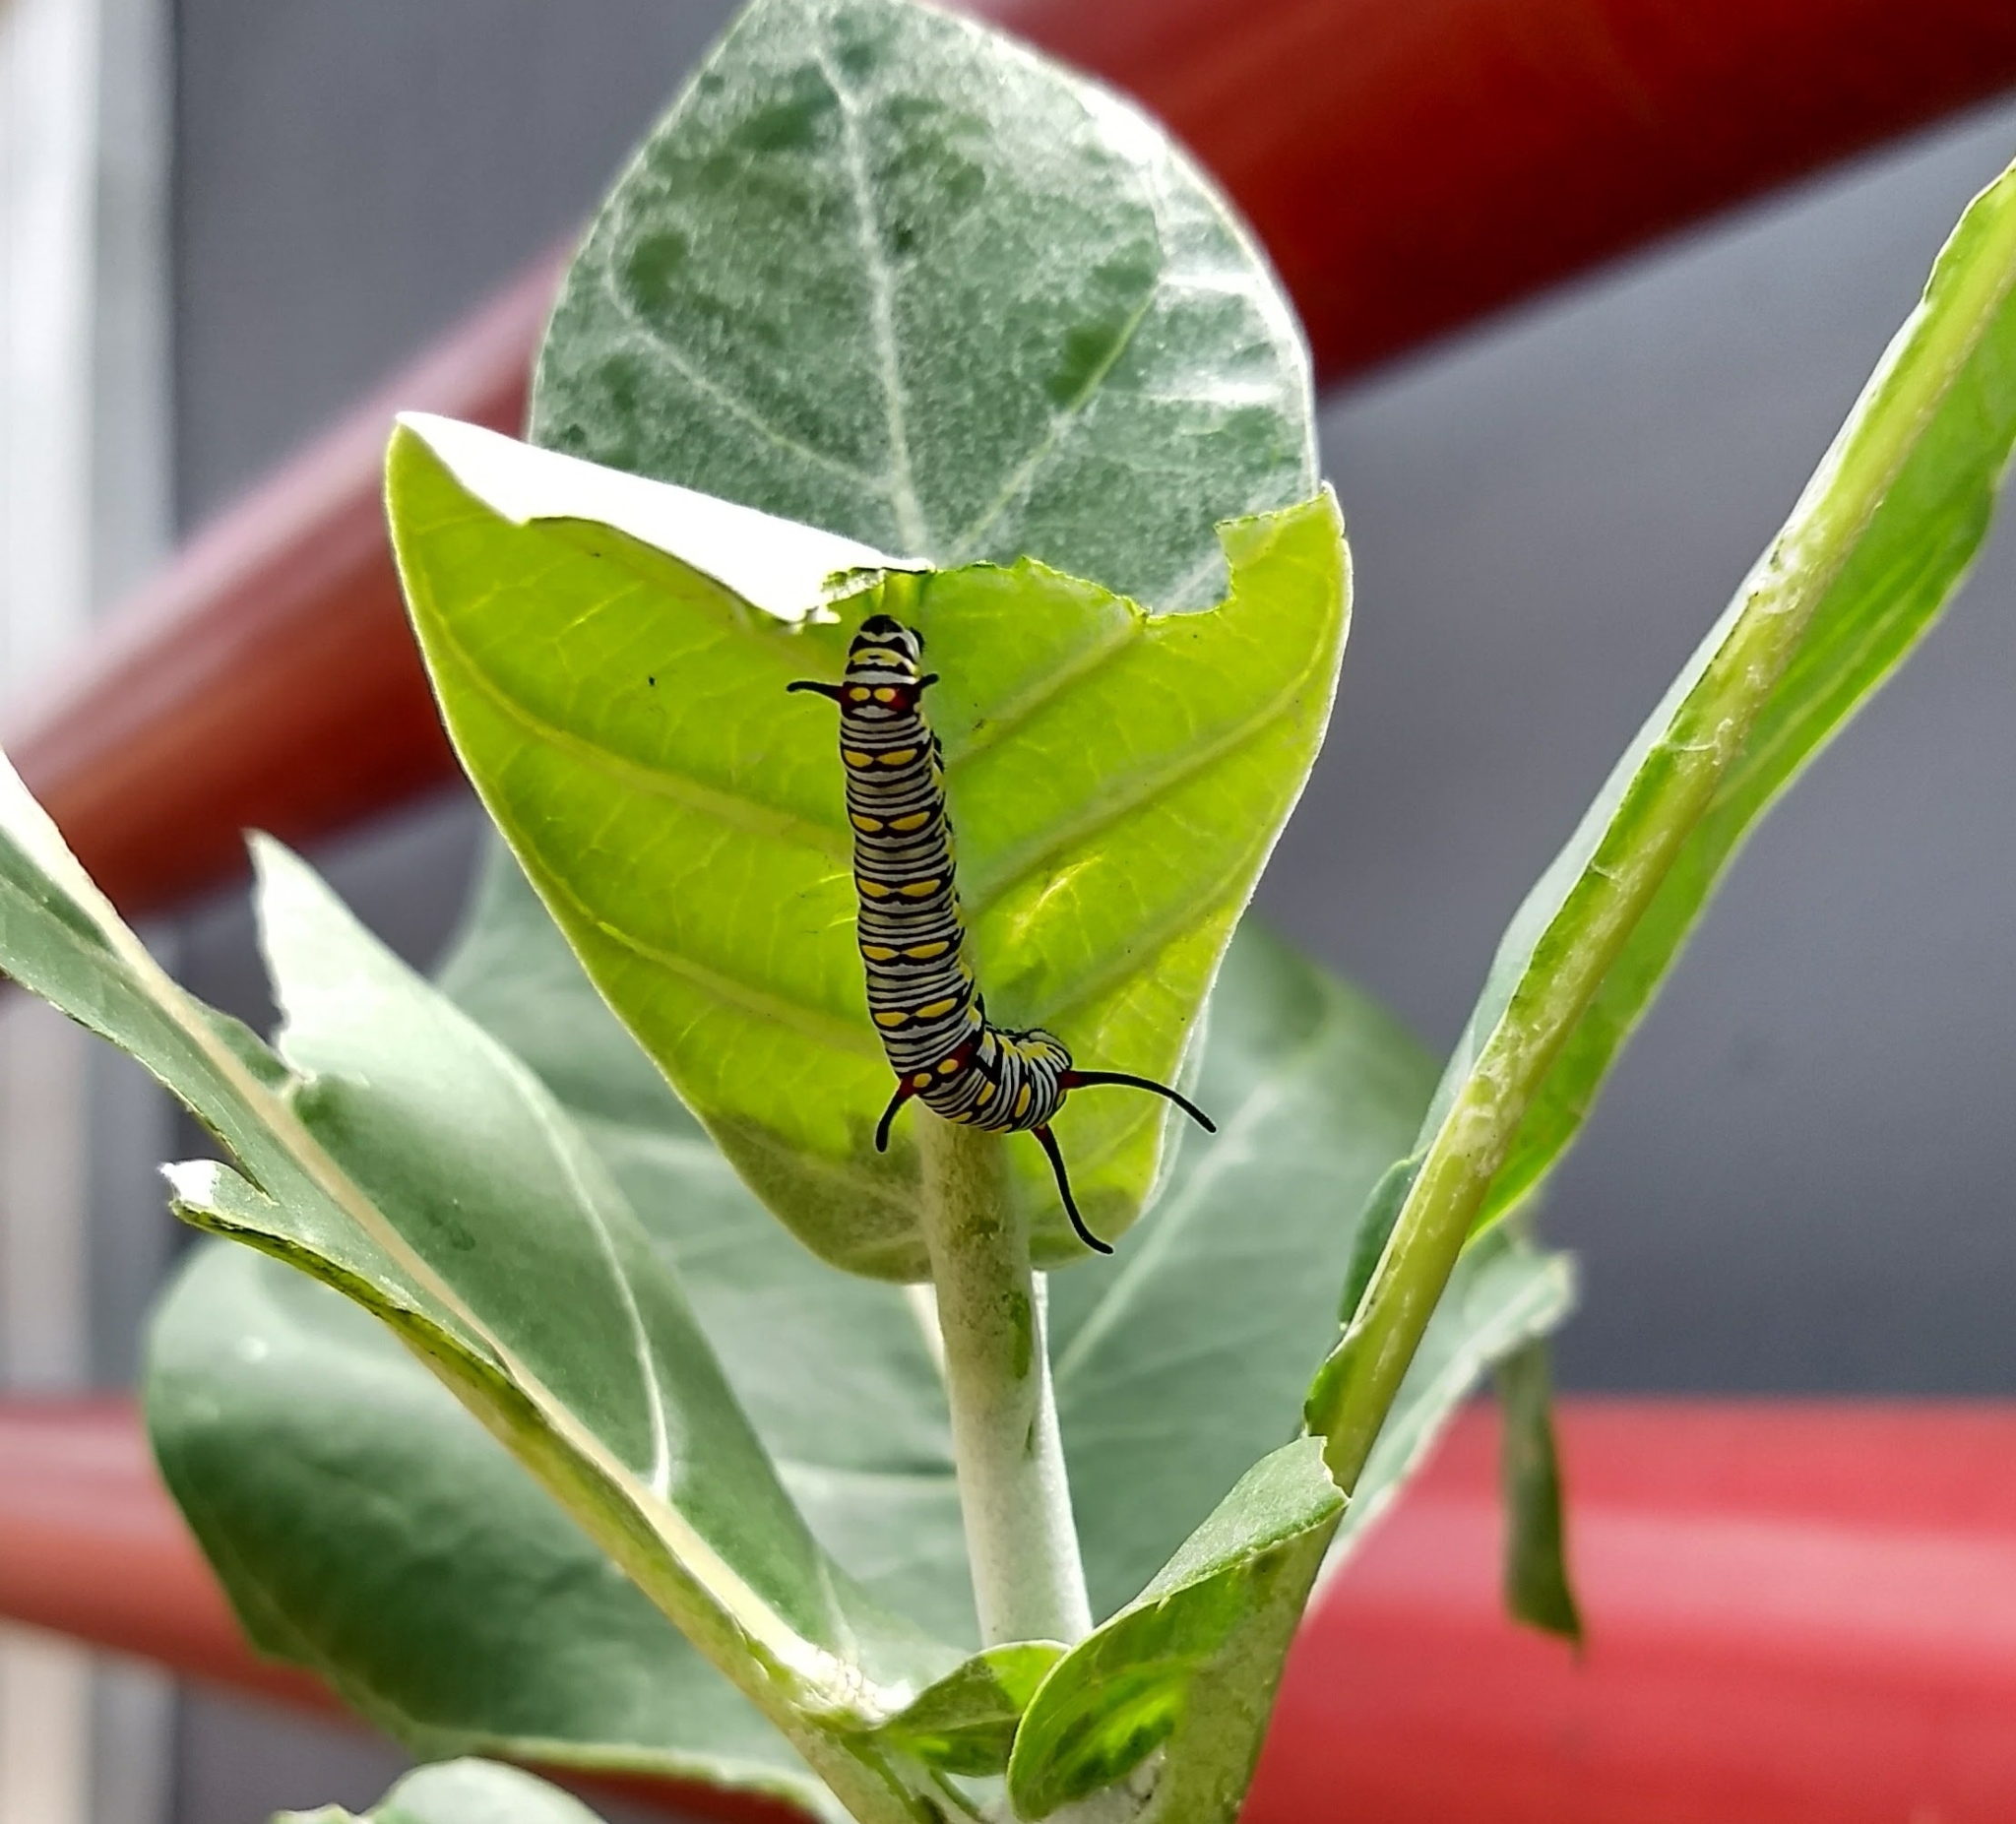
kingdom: Animalia
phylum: Arthropoda
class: Insecta
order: Lepidoptera
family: Nymphalidae
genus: Danaus
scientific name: Danaus chrysippus
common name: Plain tiger
